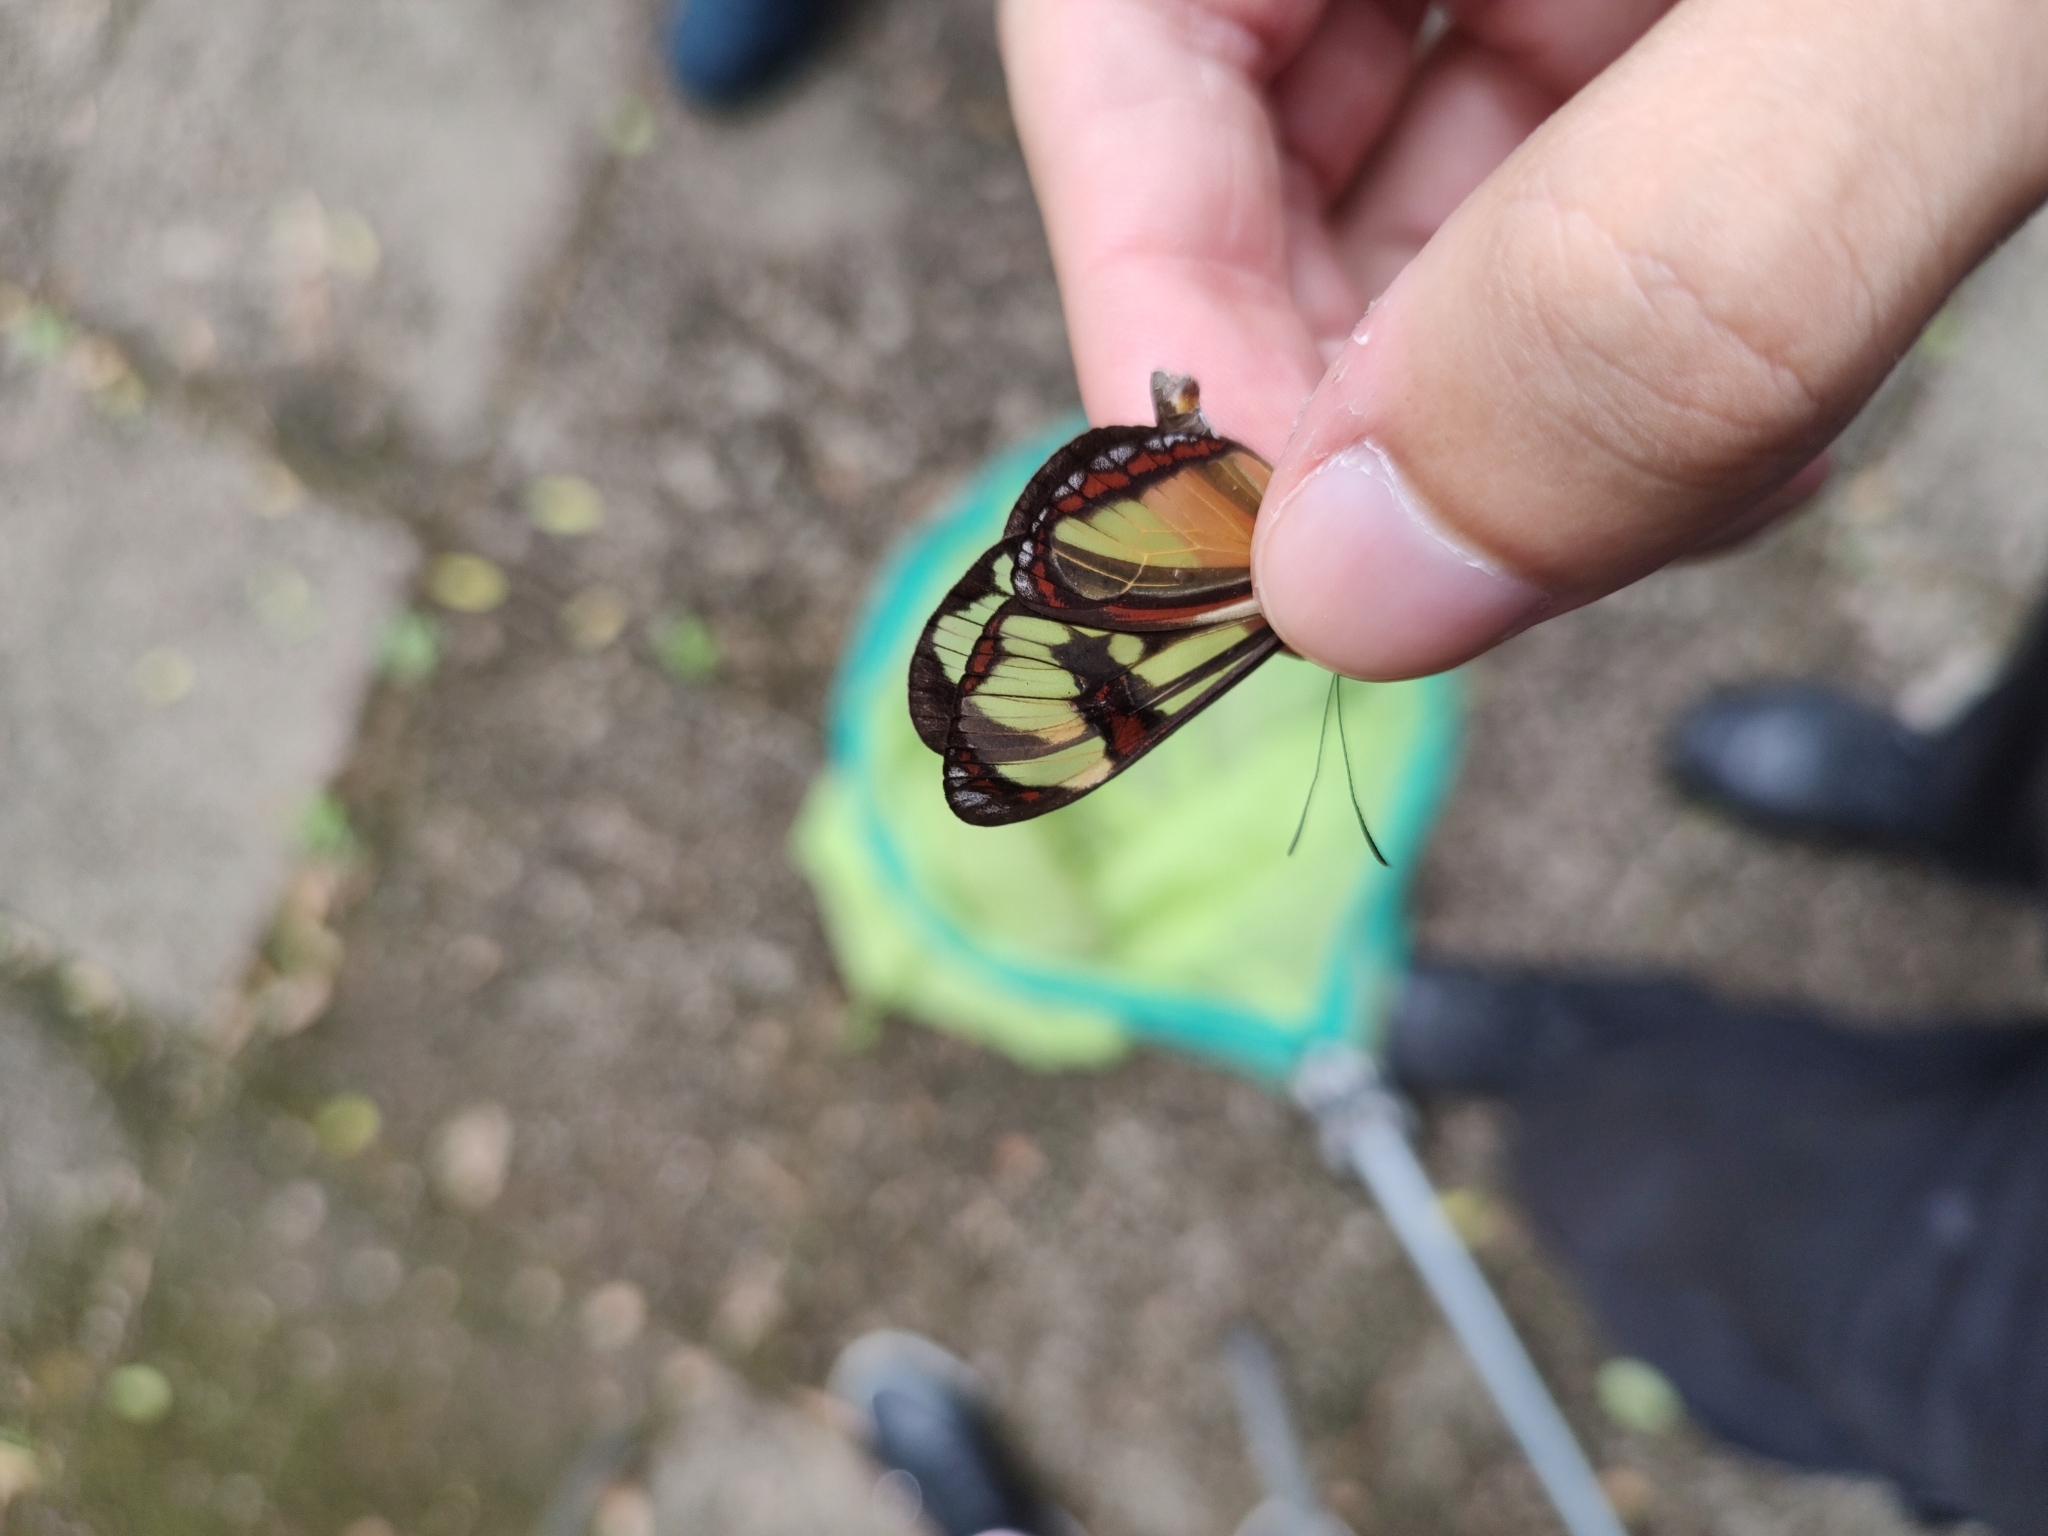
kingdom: Animalia
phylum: Arthropoda
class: Insecta
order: Lepidoptera
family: Nymphalidae
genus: Epityches
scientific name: Epityches eupompe
